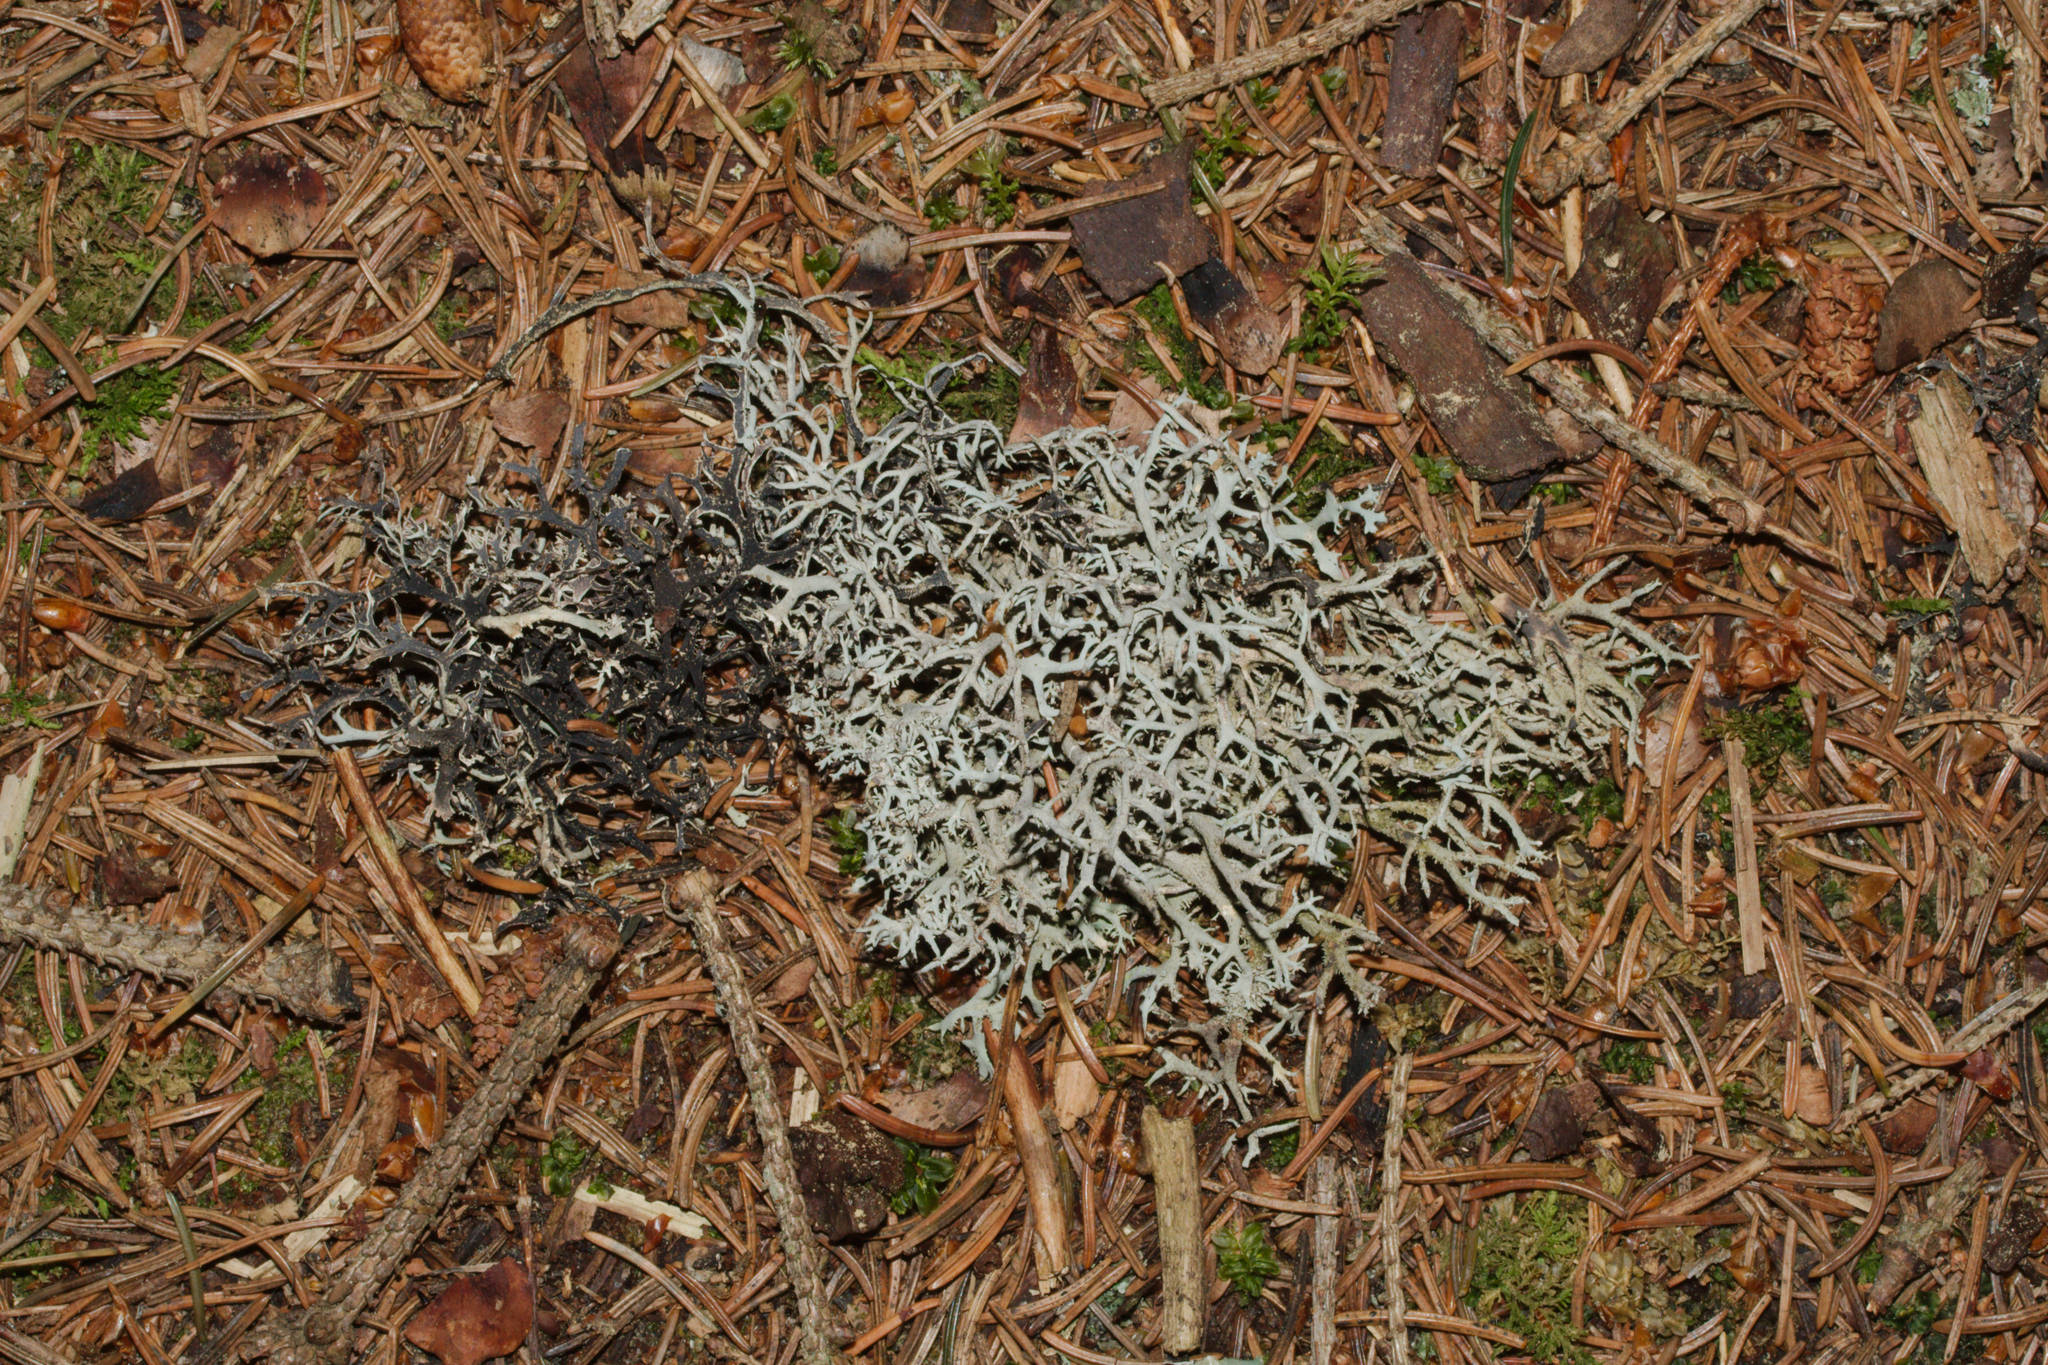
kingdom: Fungi
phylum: Ascomycota
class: Lecanoromycetes
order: Lecanorales
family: Parmeliaceae
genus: Pseudevernia
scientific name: Pseudevernia furfuracea
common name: Tree moss
